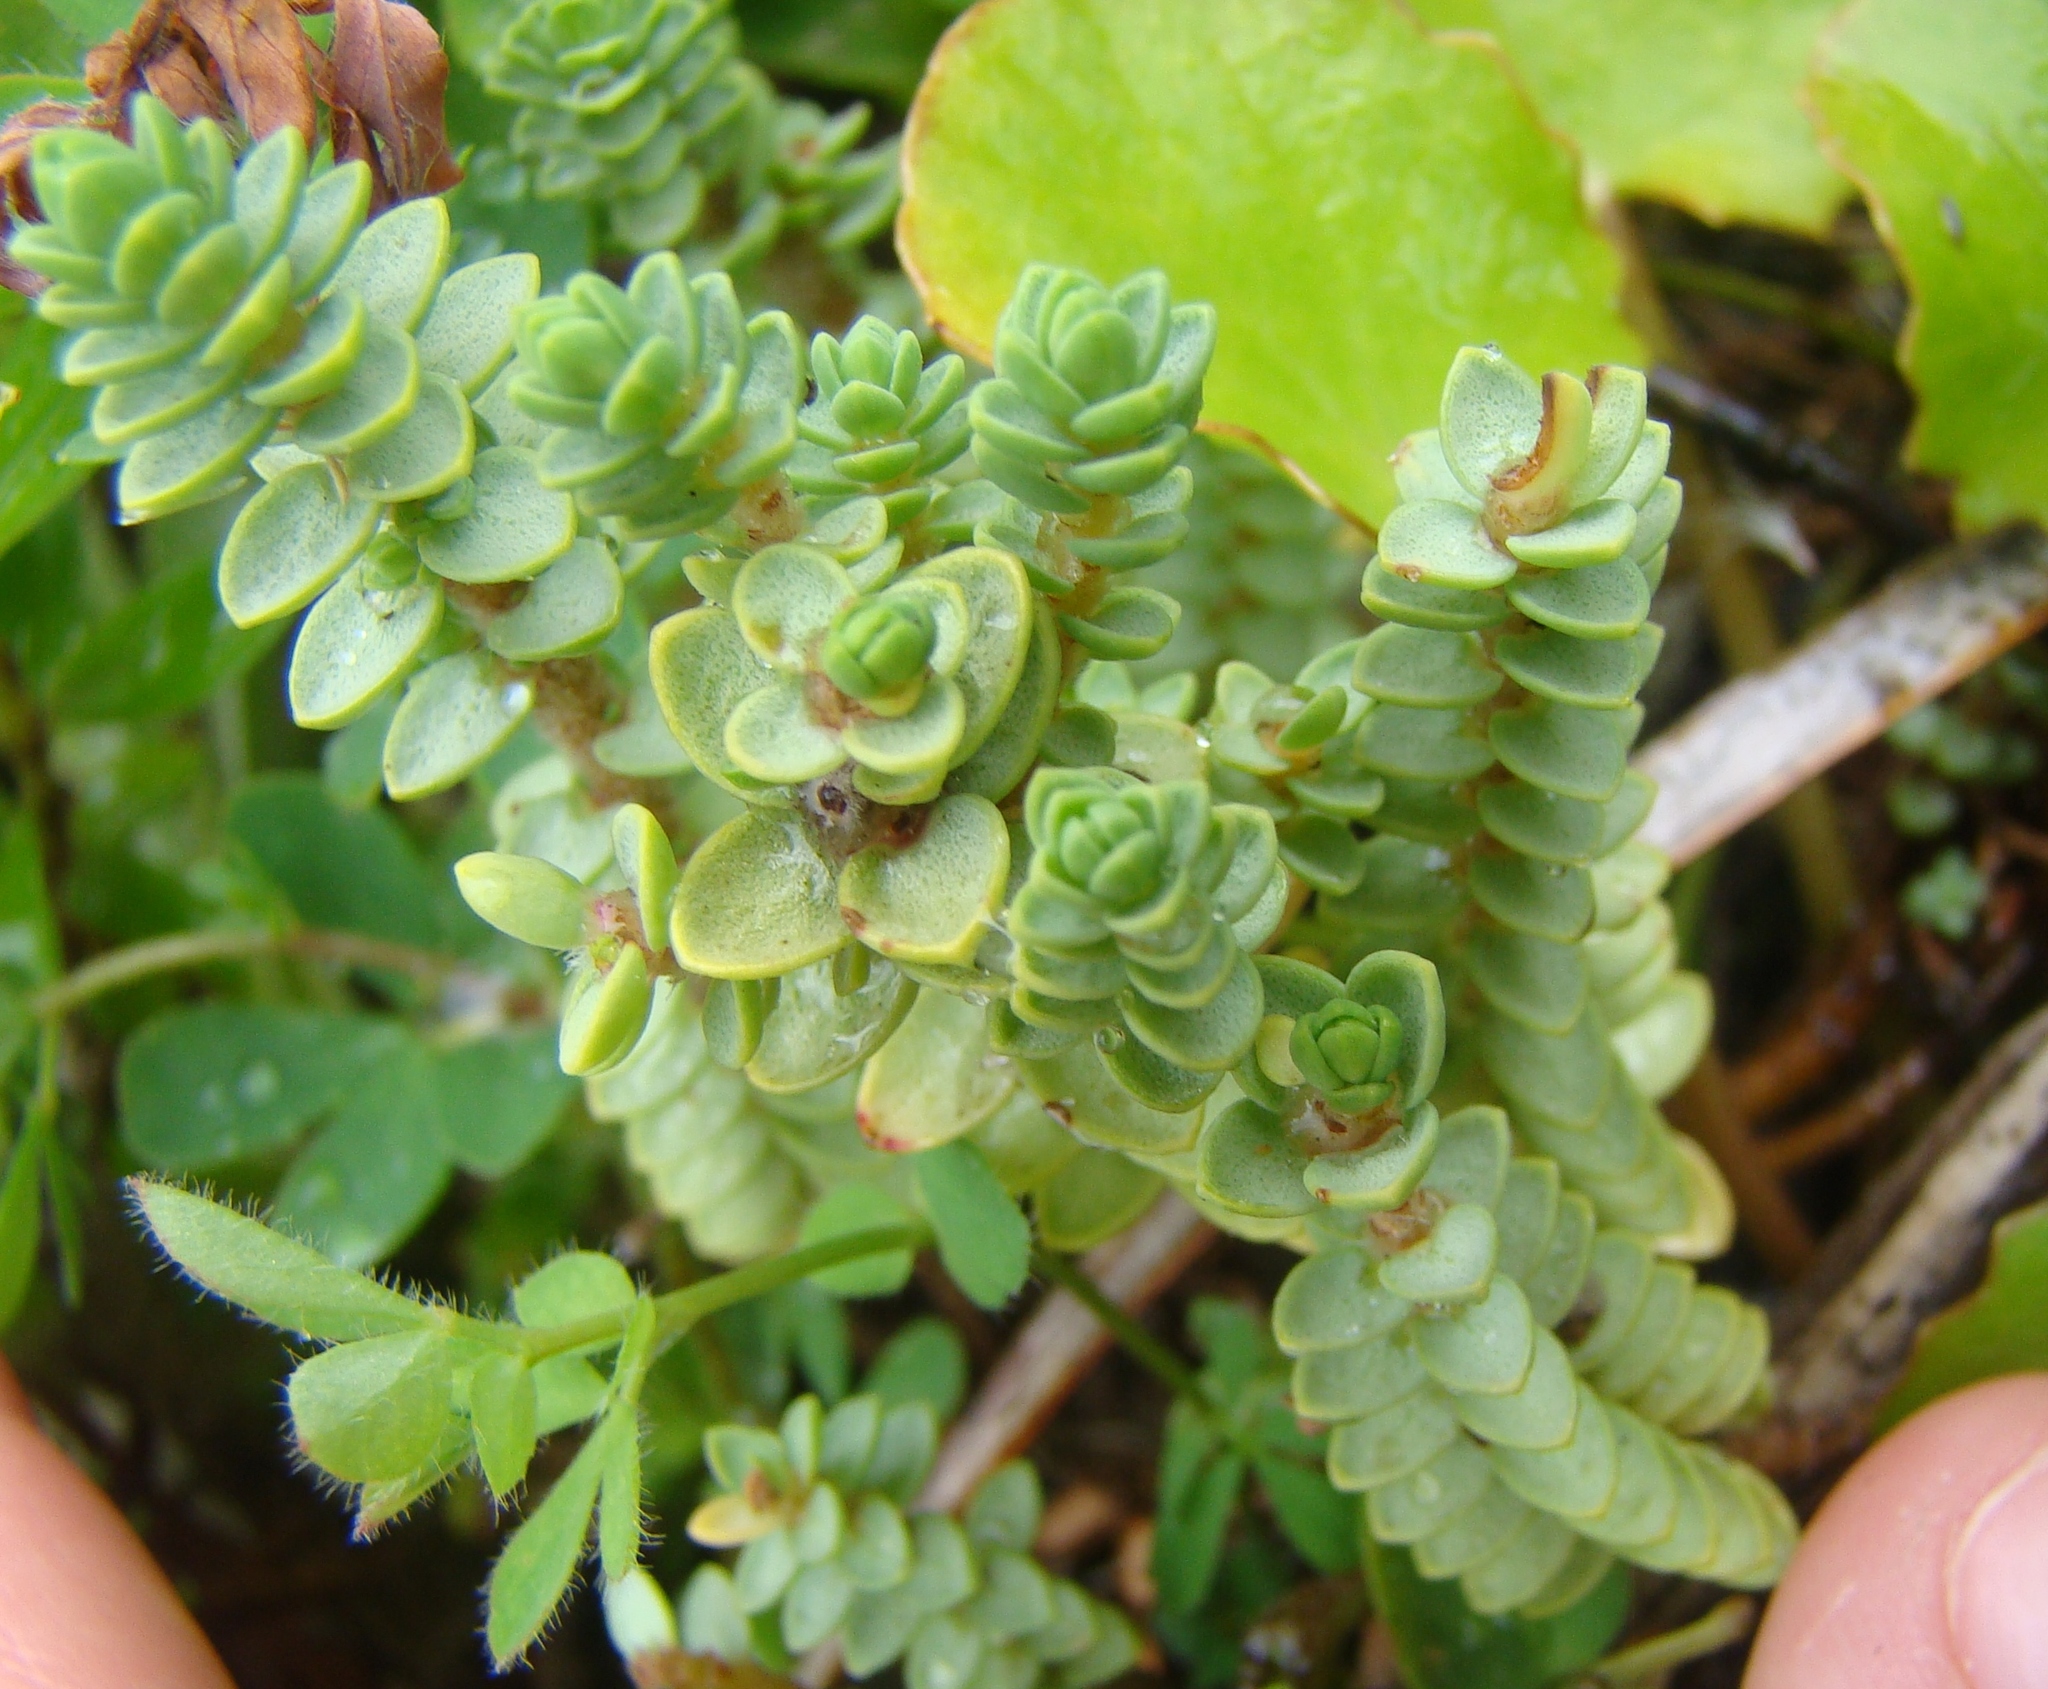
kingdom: Plantae
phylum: Tracheophyta
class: Magnoliopsida
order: Malvales
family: Thymelaeaceae
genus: Pimelea
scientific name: Pimelea
